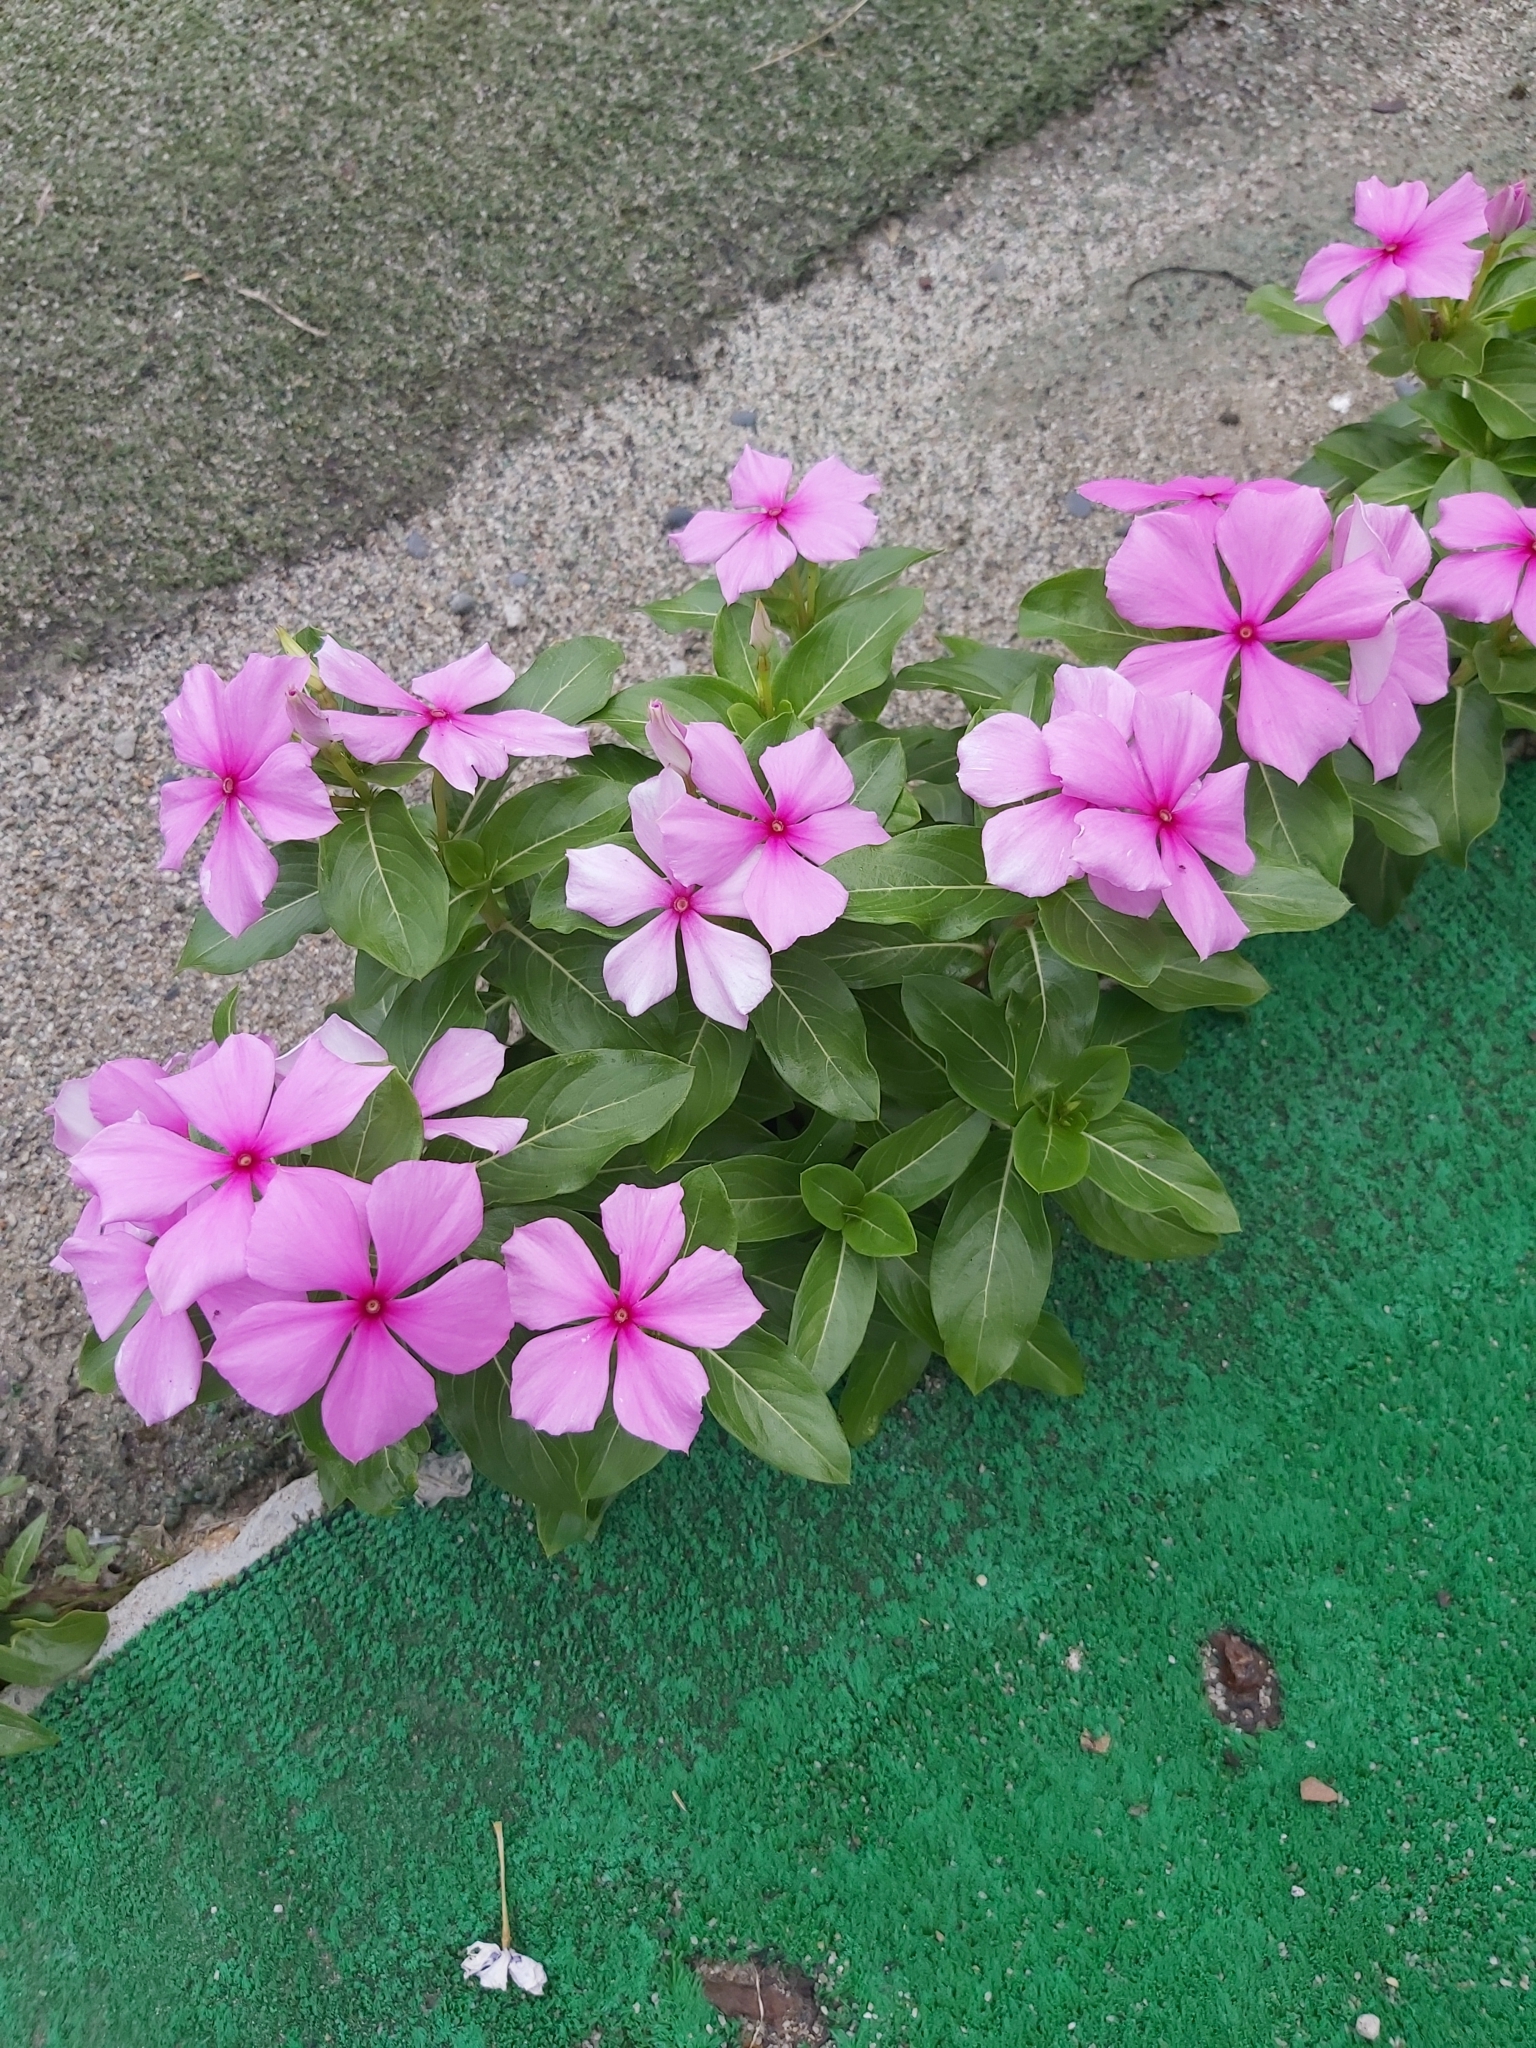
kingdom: Plantae
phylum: Tracheophyta
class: Magnoliopsida
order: Gentianales
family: Apocynaceae
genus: Catharanthus
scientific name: Catharanthus roseus
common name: Madagascar periwinkle
